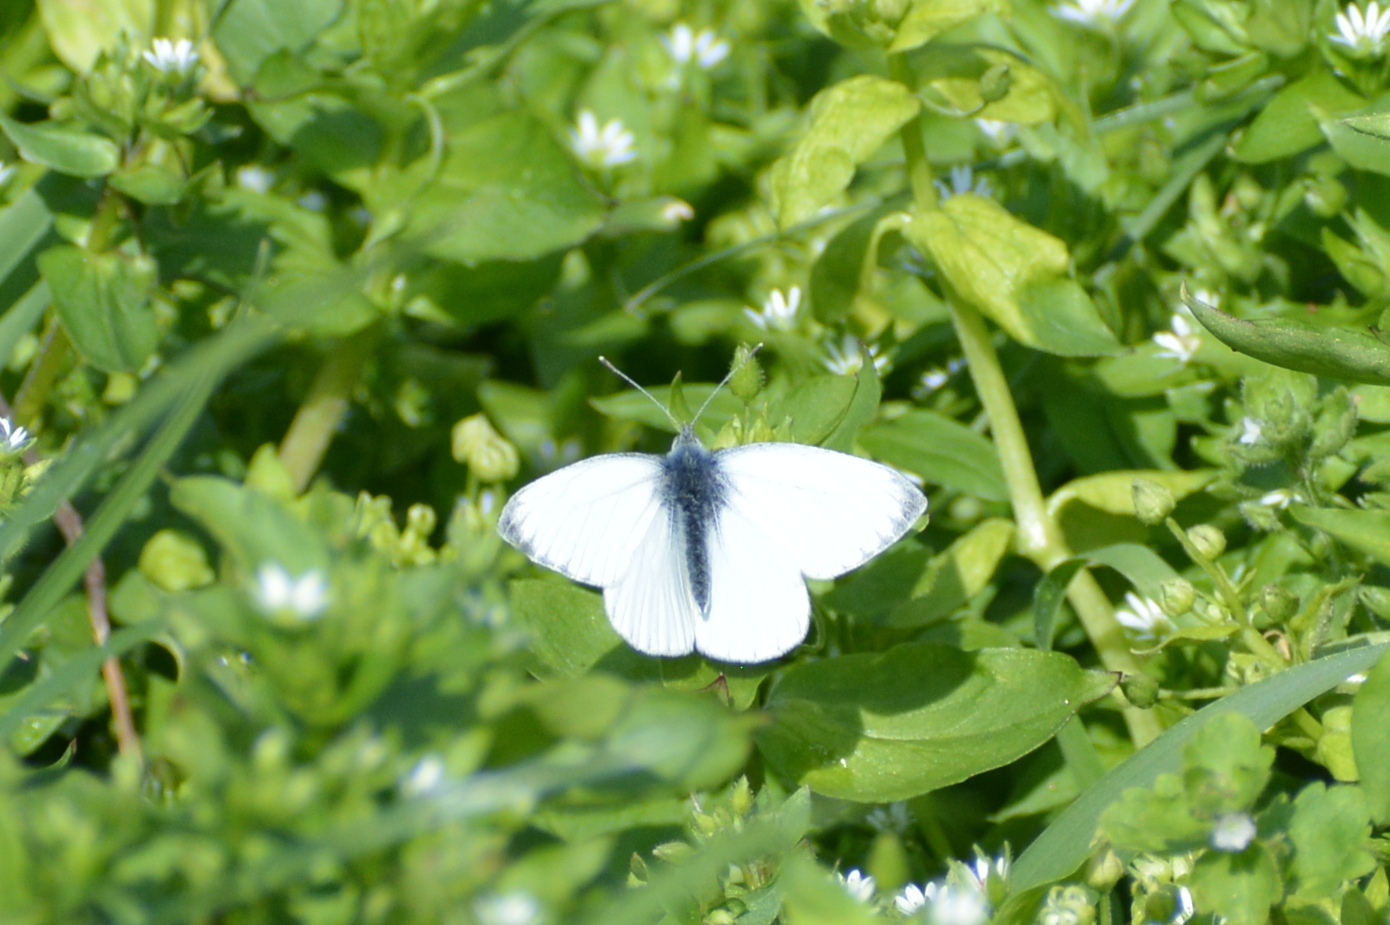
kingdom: Animalia
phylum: Arthropoda
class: Insecta
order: Lepidoptera
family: Pieridae
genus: Pieris
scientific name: Pieris napi
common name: Green-veined white
